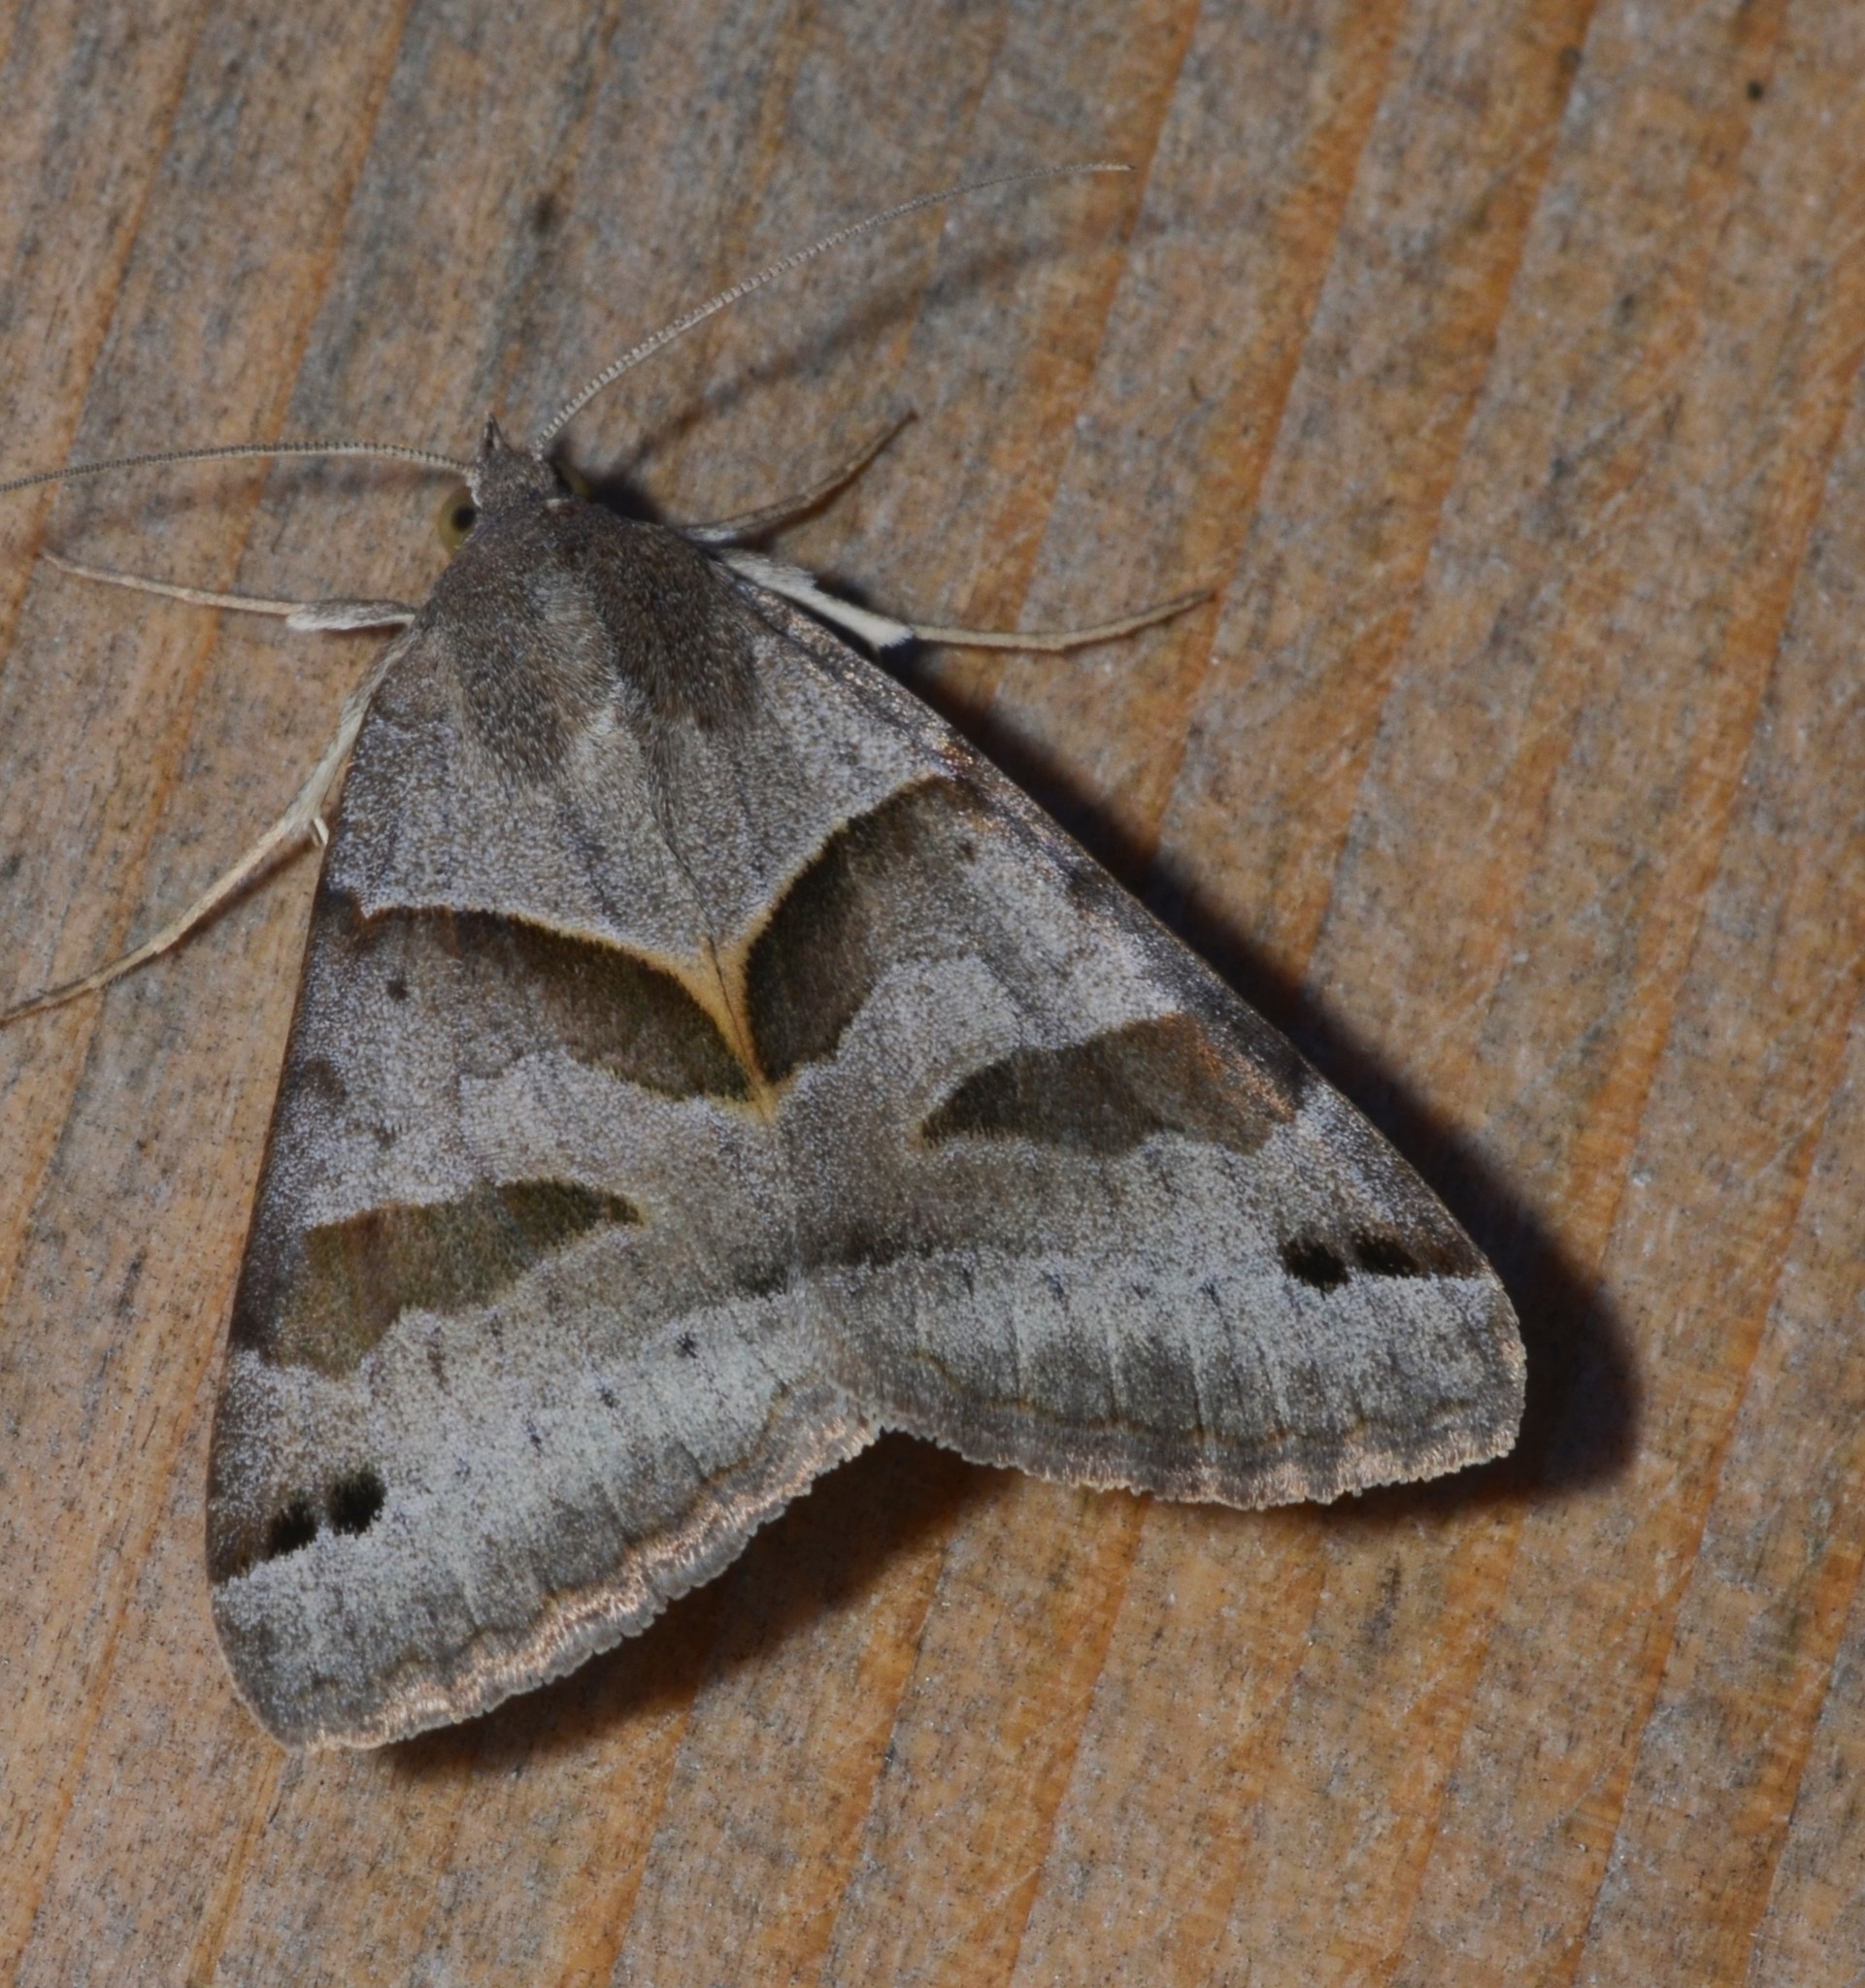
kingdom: Animalia
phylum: Arthropoda
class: Insecta
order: Lepidoptera
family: Erebidae
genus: Caenurgina
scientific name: Caenurgina erechtea
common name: Forage looper moth
